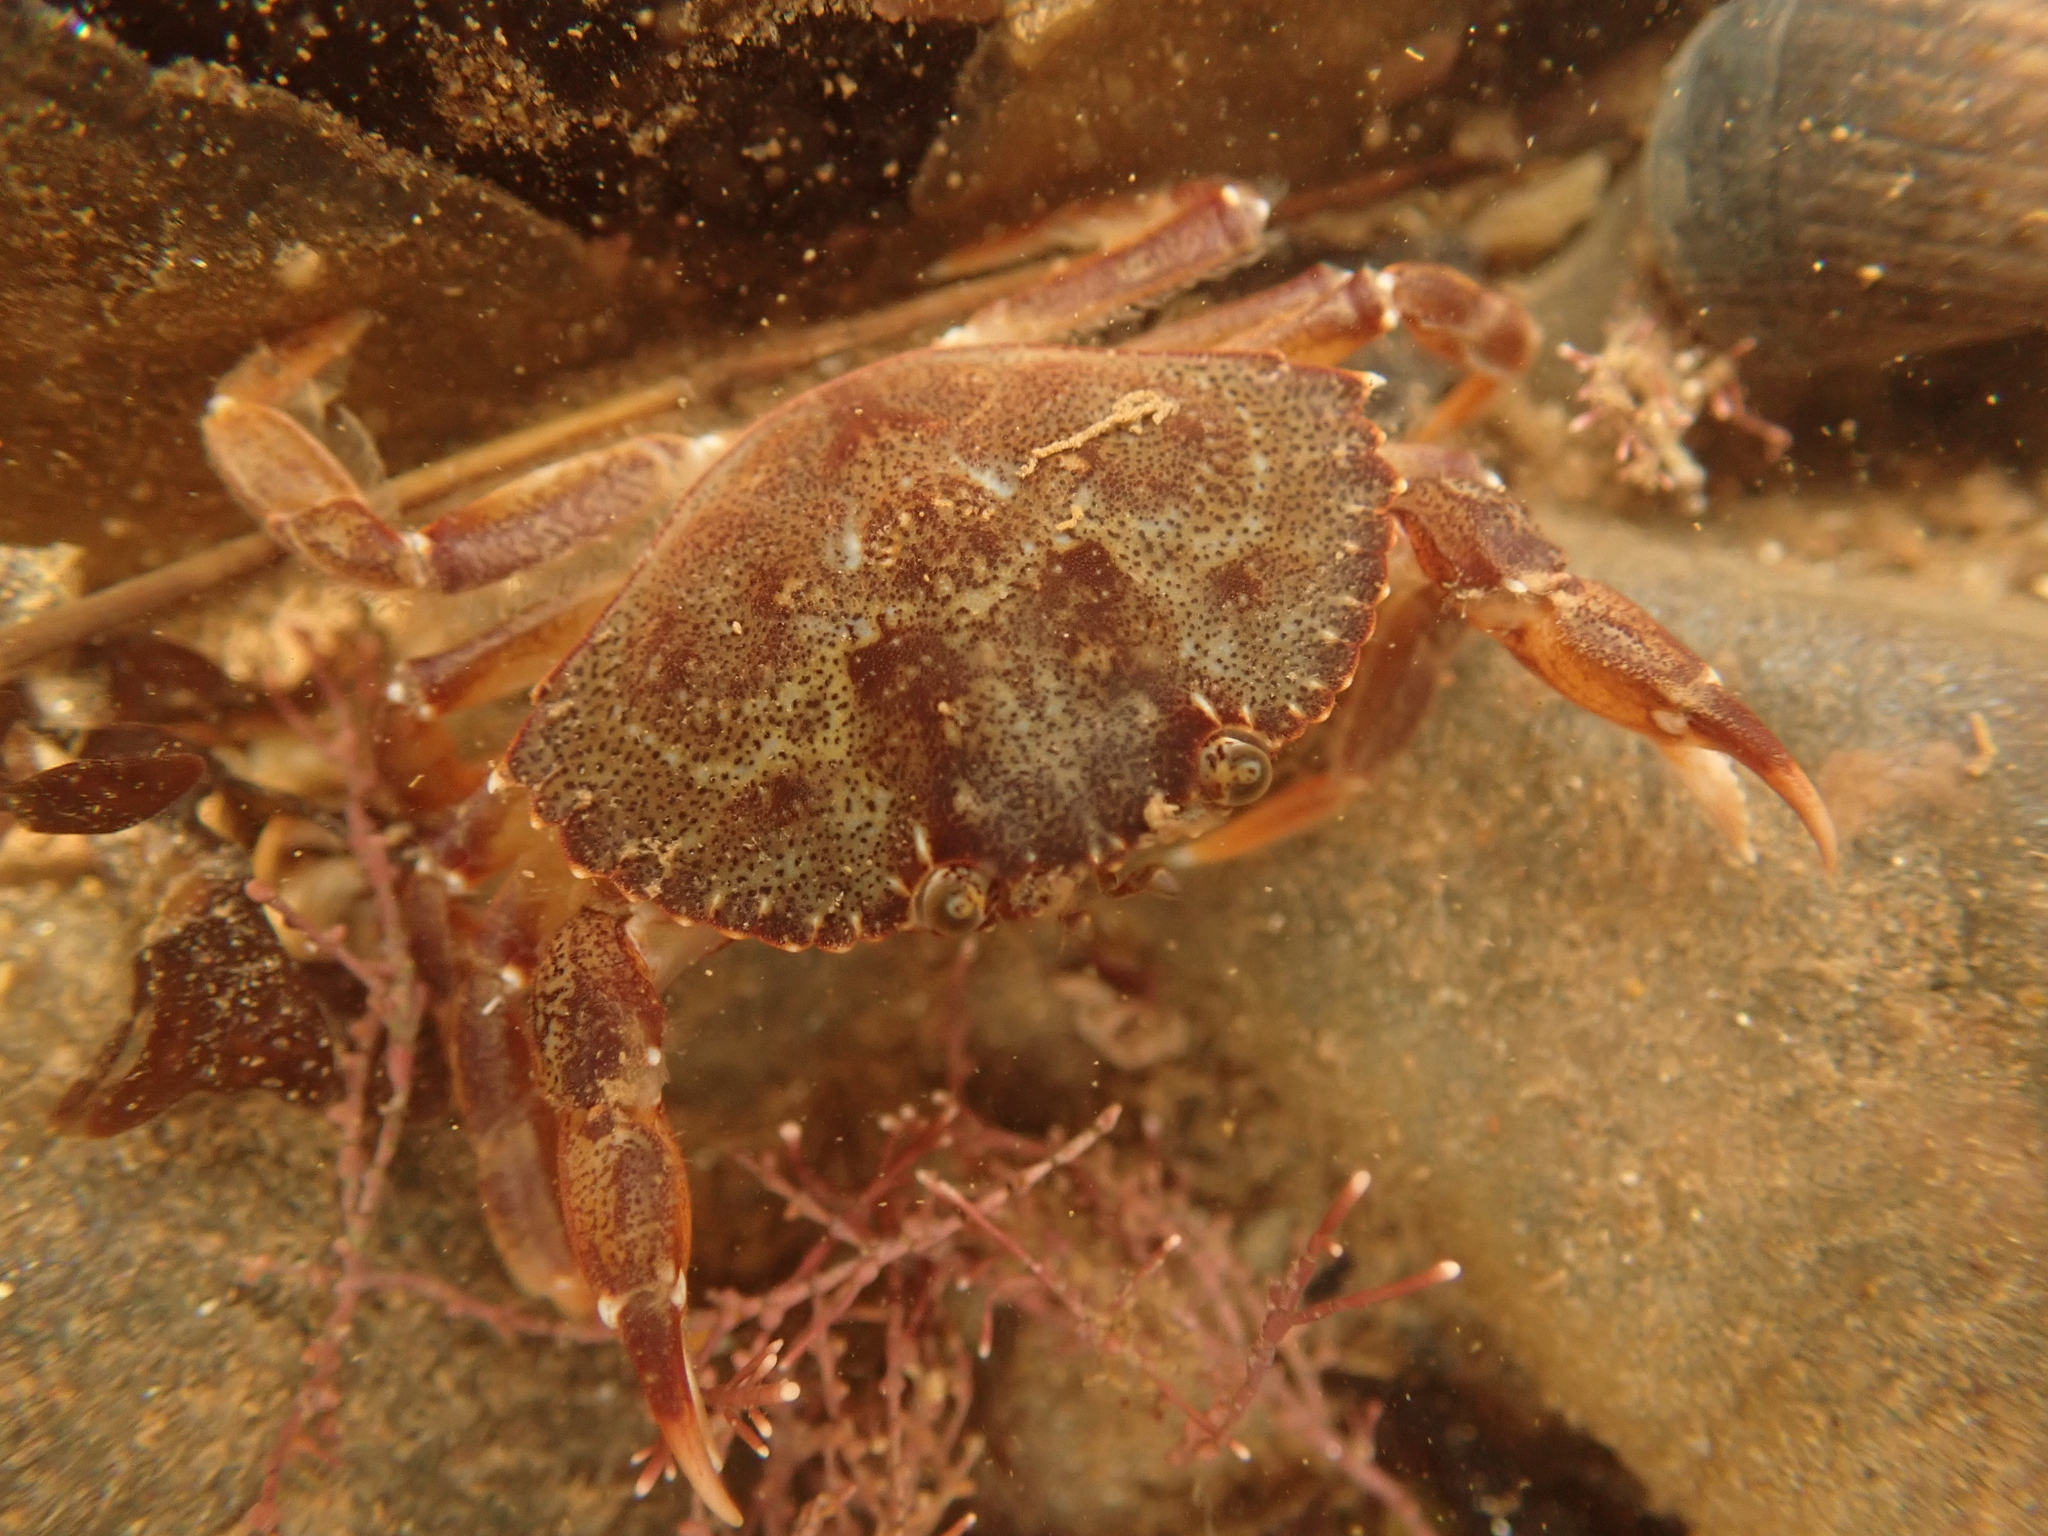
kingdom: Animalia
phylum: Arthropoda
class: Malacostraca
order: Decapoda
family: Cancridae
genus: Cancer
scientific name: Cancer irroratus
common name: Atlantic rock crab
